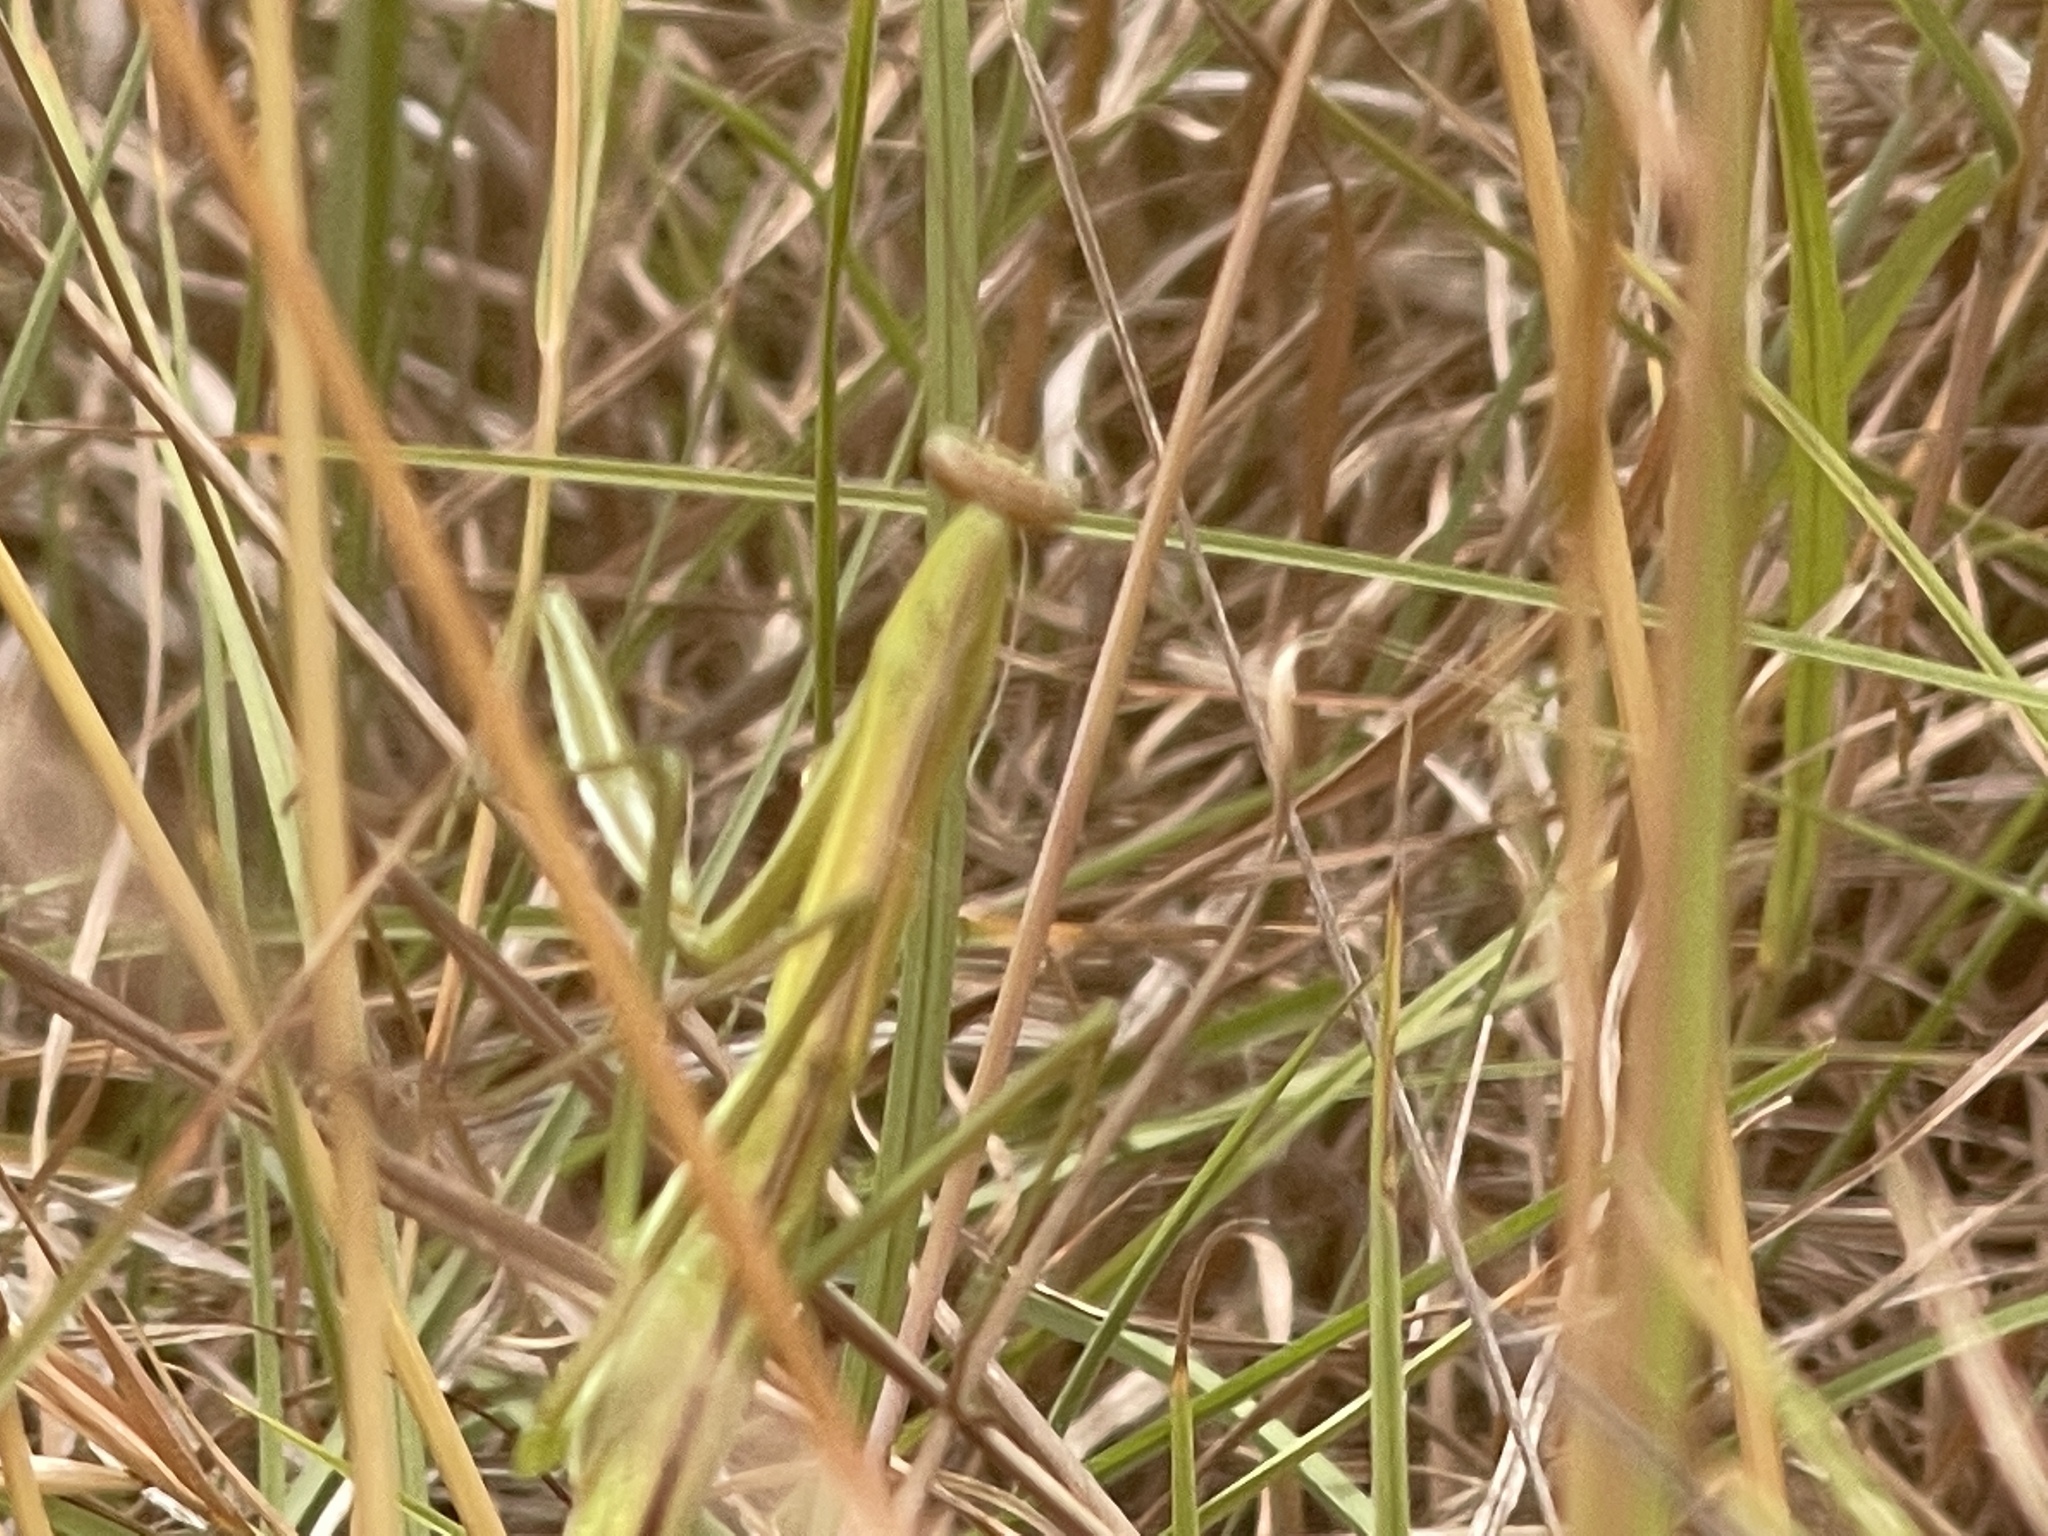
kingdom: Animalia
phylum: Arthropoda
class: Insecta
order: Mantodea
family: Mantidae
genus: Tenodera
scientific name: Tenodera australasiae
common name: Purple-winged mantis
